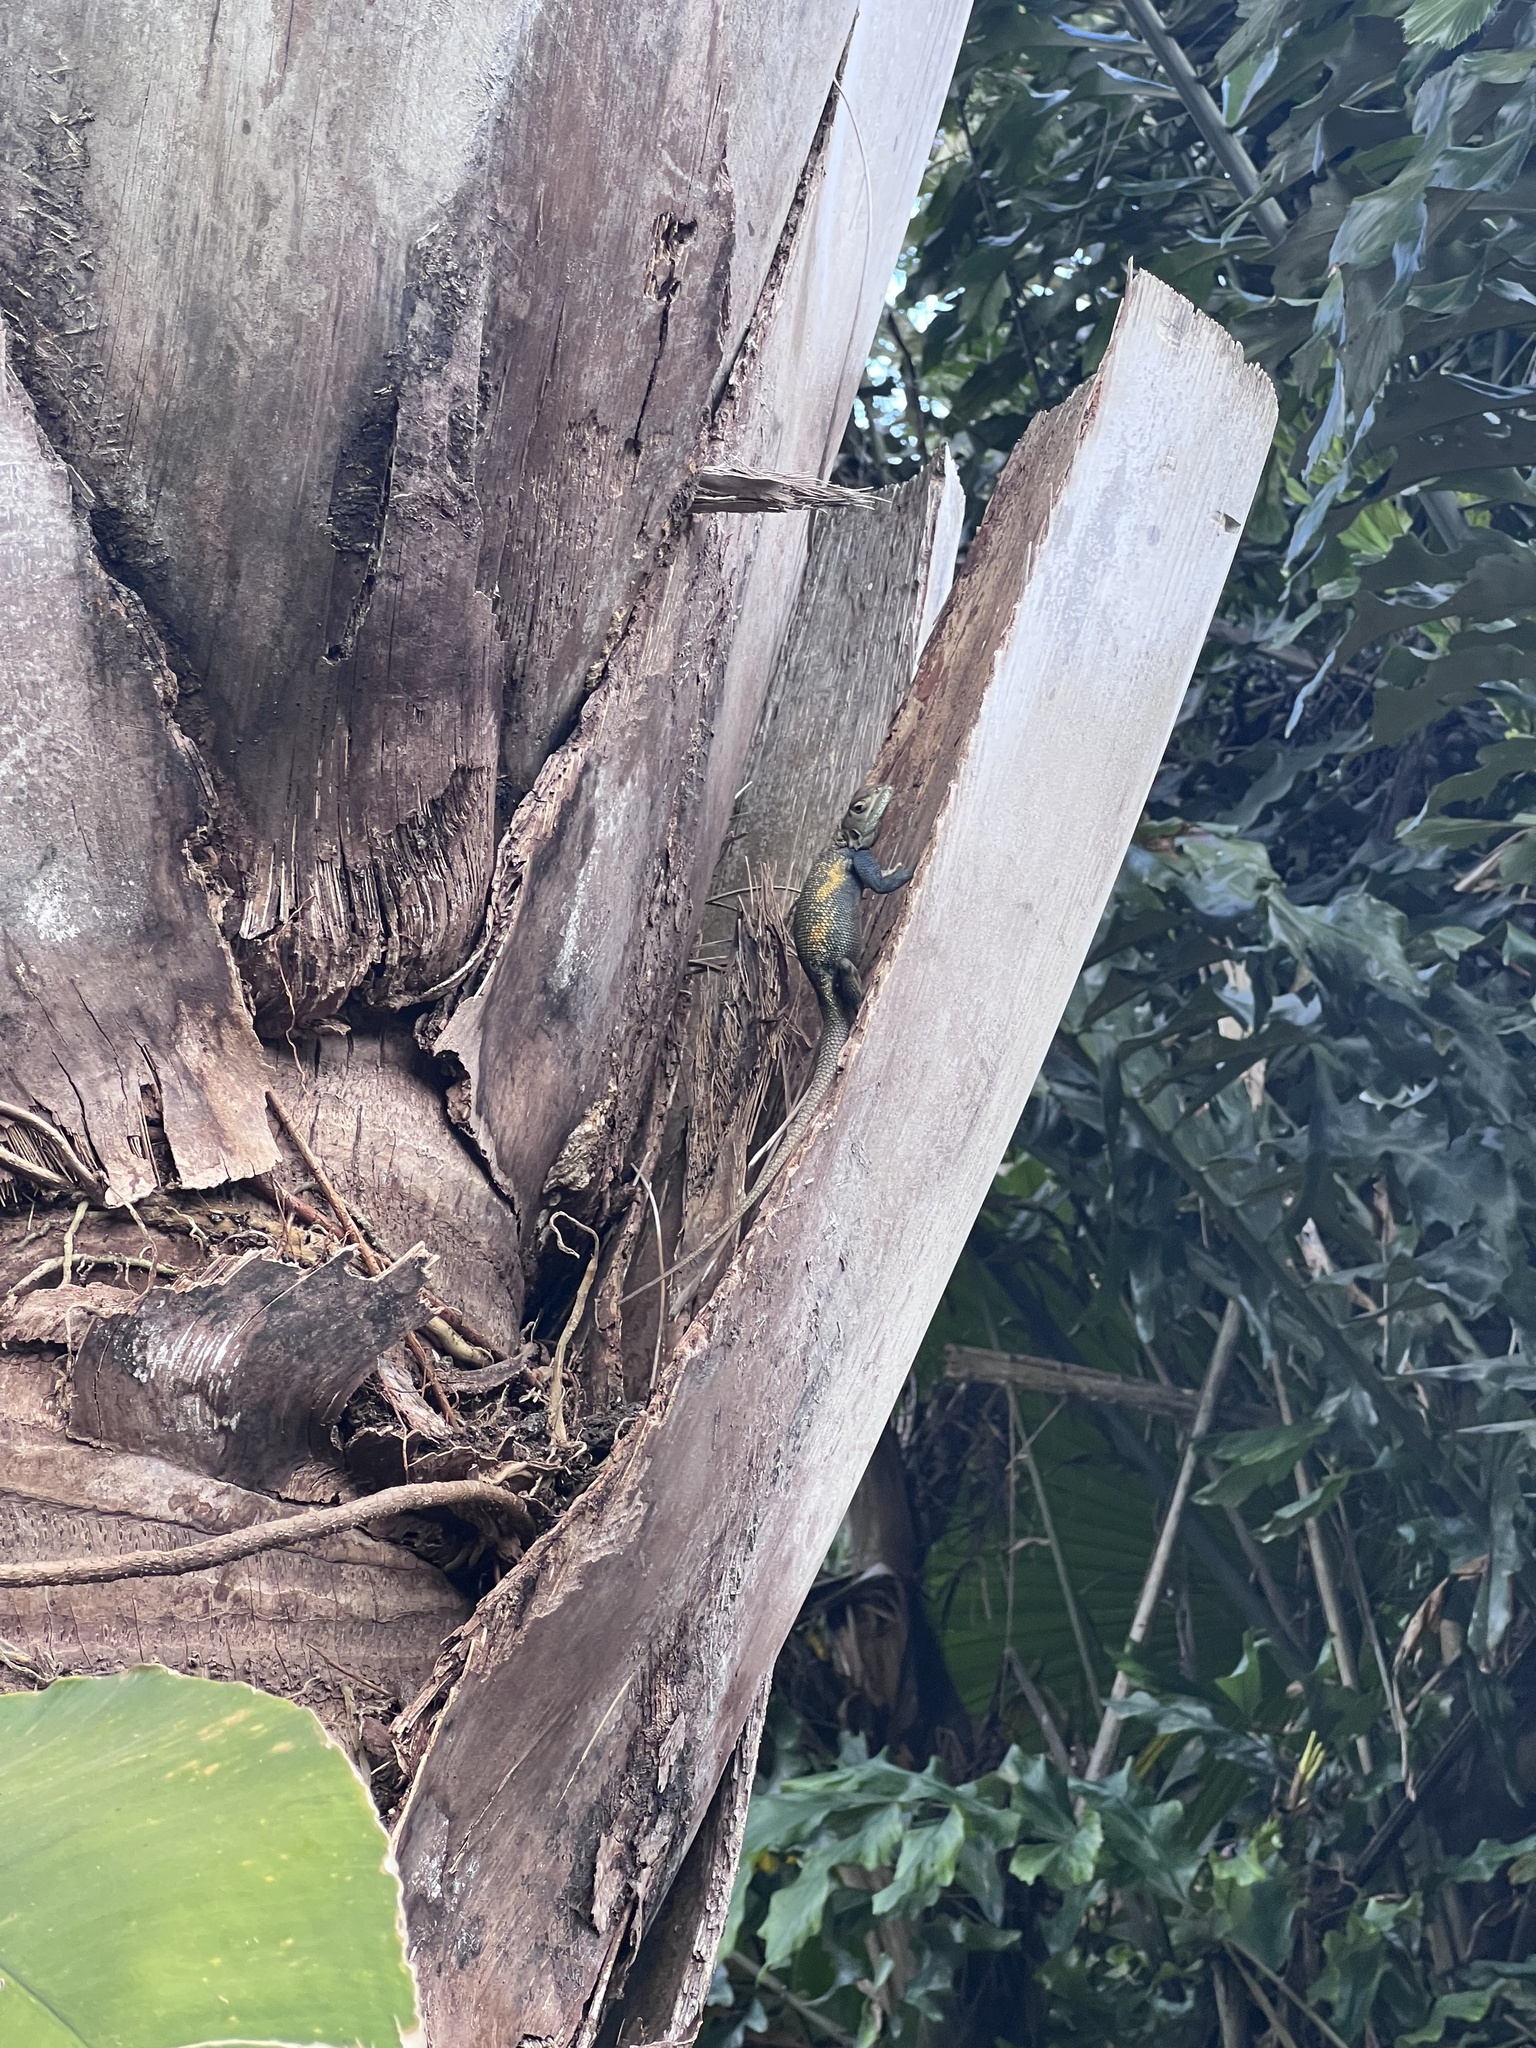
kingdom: Animalia
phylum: Chordata
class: Squamata
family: Agamidae
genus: Agama
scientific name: Agama picticauda
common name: Red-headed agama
